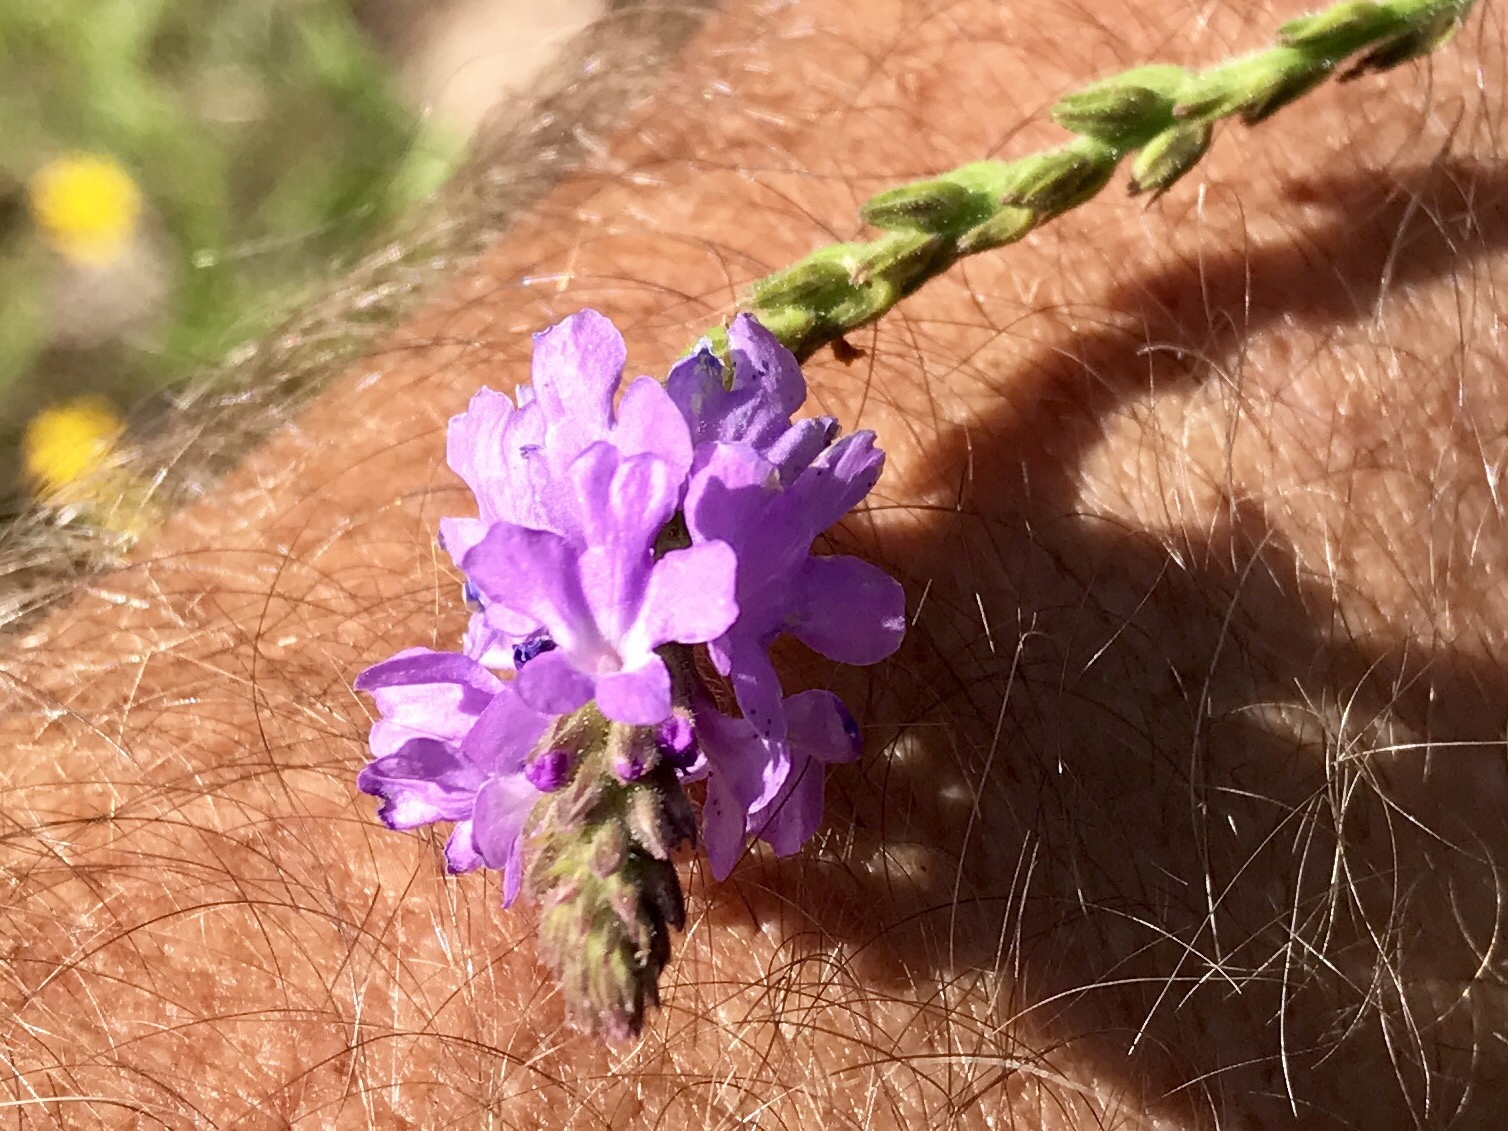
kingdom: Plantae
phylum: Tracheophyta
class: Magnoliopsida
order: Lamiales
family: Verbenaceae
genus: Verbena
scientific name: Verbena neomexicana
